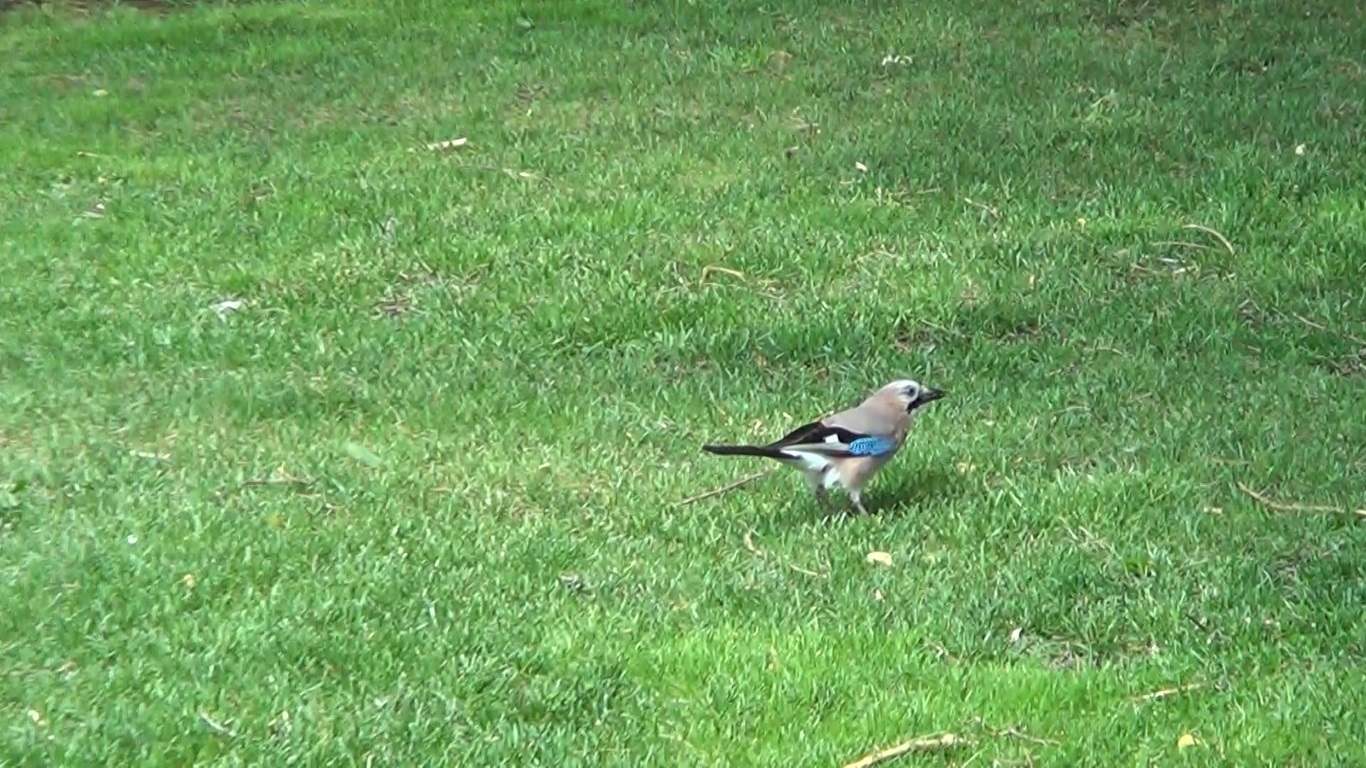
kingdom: Animalia
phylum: Chordata
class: Aves
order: Passeriformes
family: Corvidae
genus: Garrulus
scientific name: Garrulus glandarius
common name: Eurasian jay
